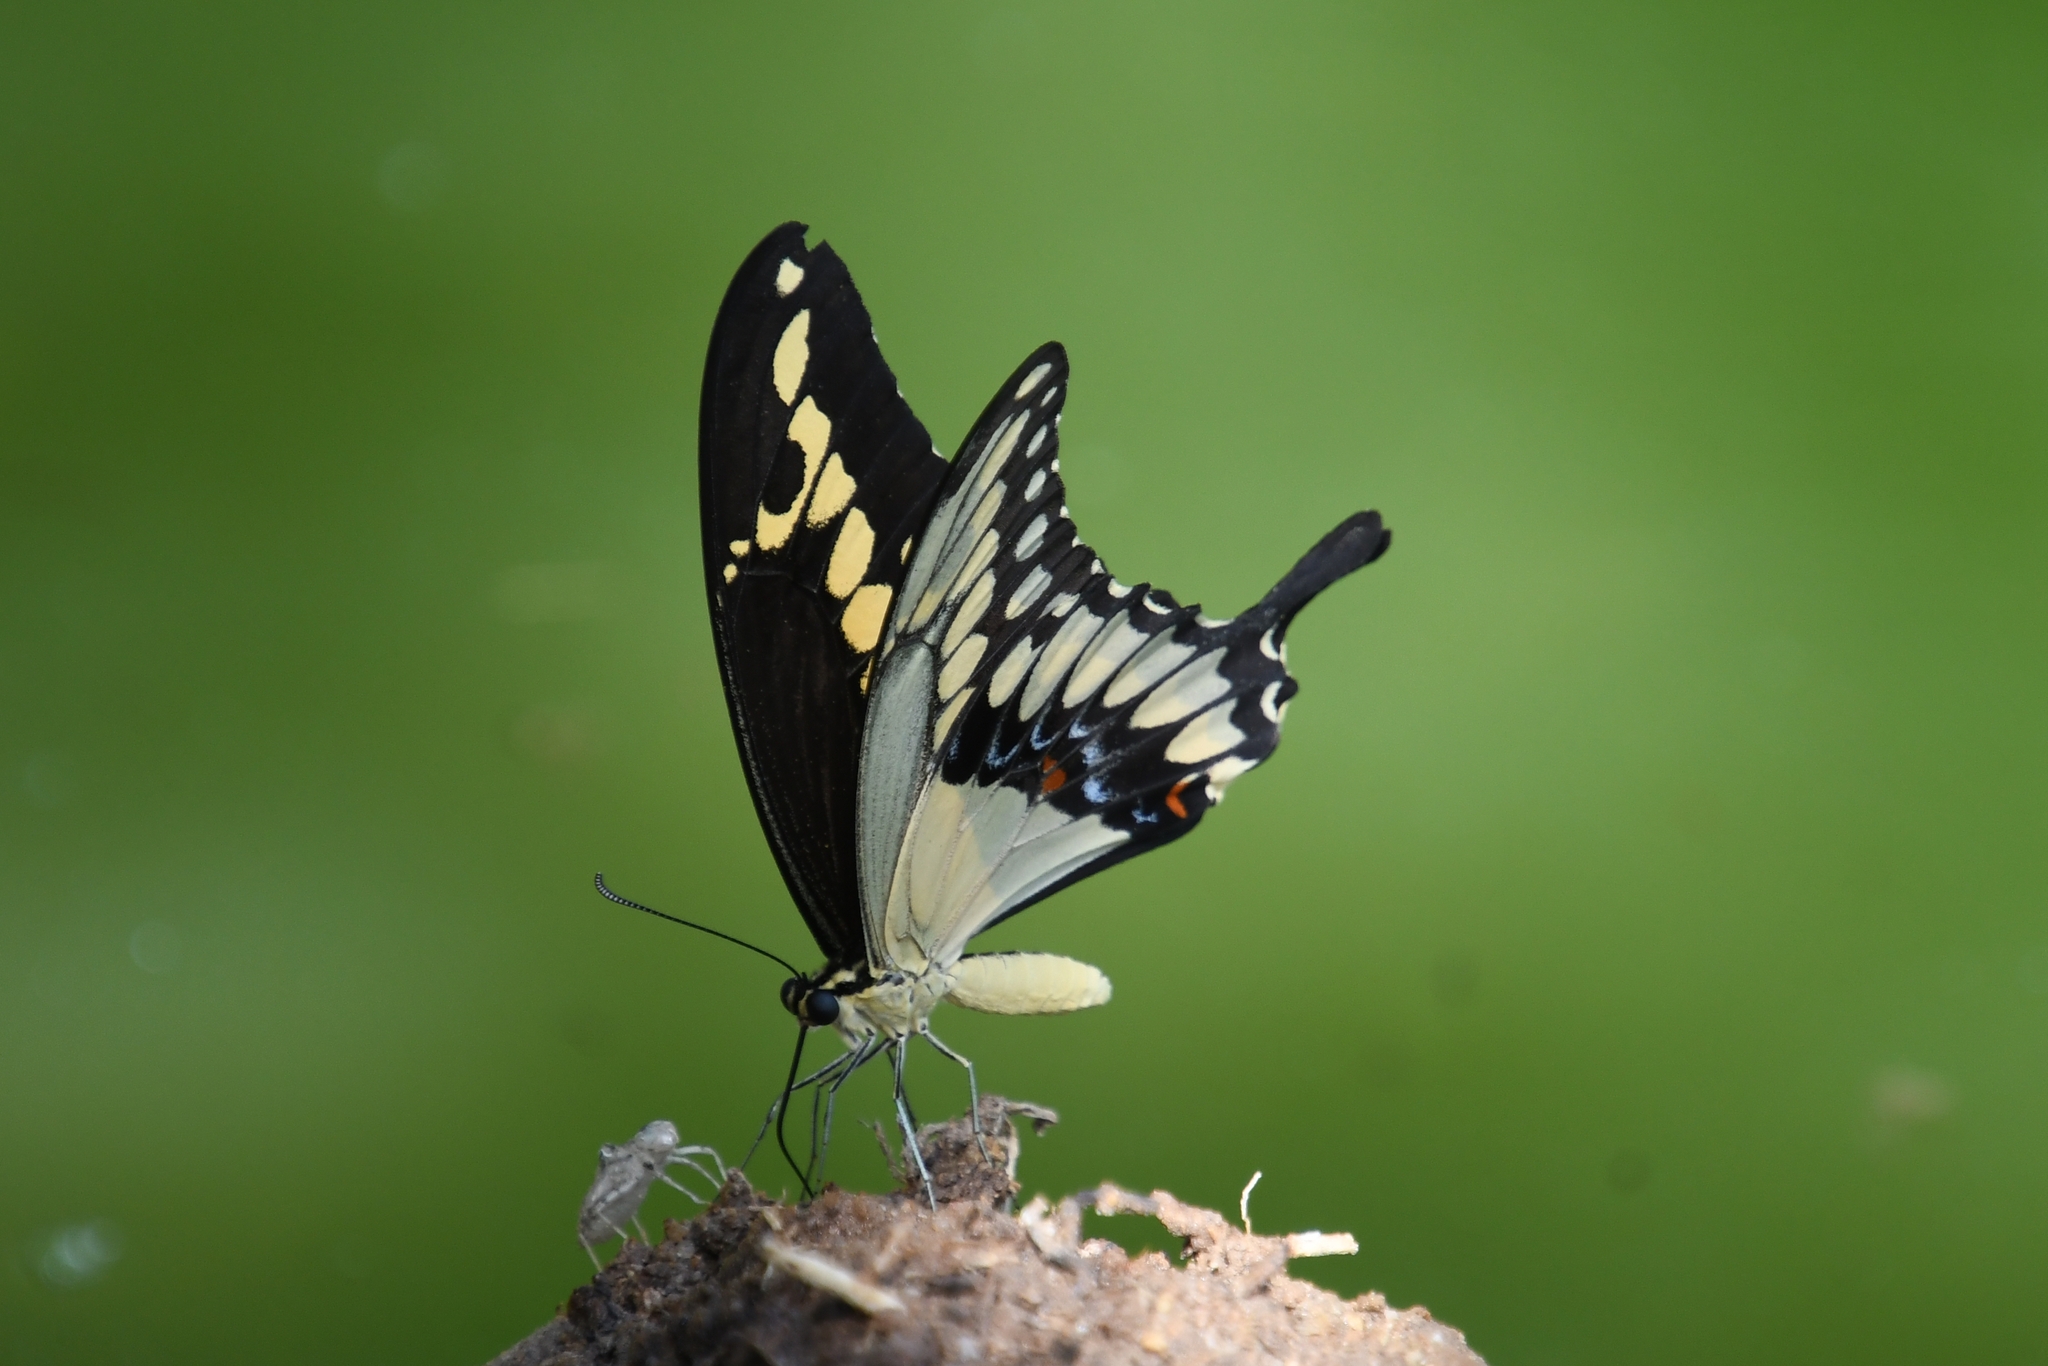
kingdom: Animalia
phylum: Arthropoda
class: Insecta
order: Lepidoptera
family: Papilionidae
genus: Papilio
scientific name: Papilio rumiko
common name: Western giant swallowtail
